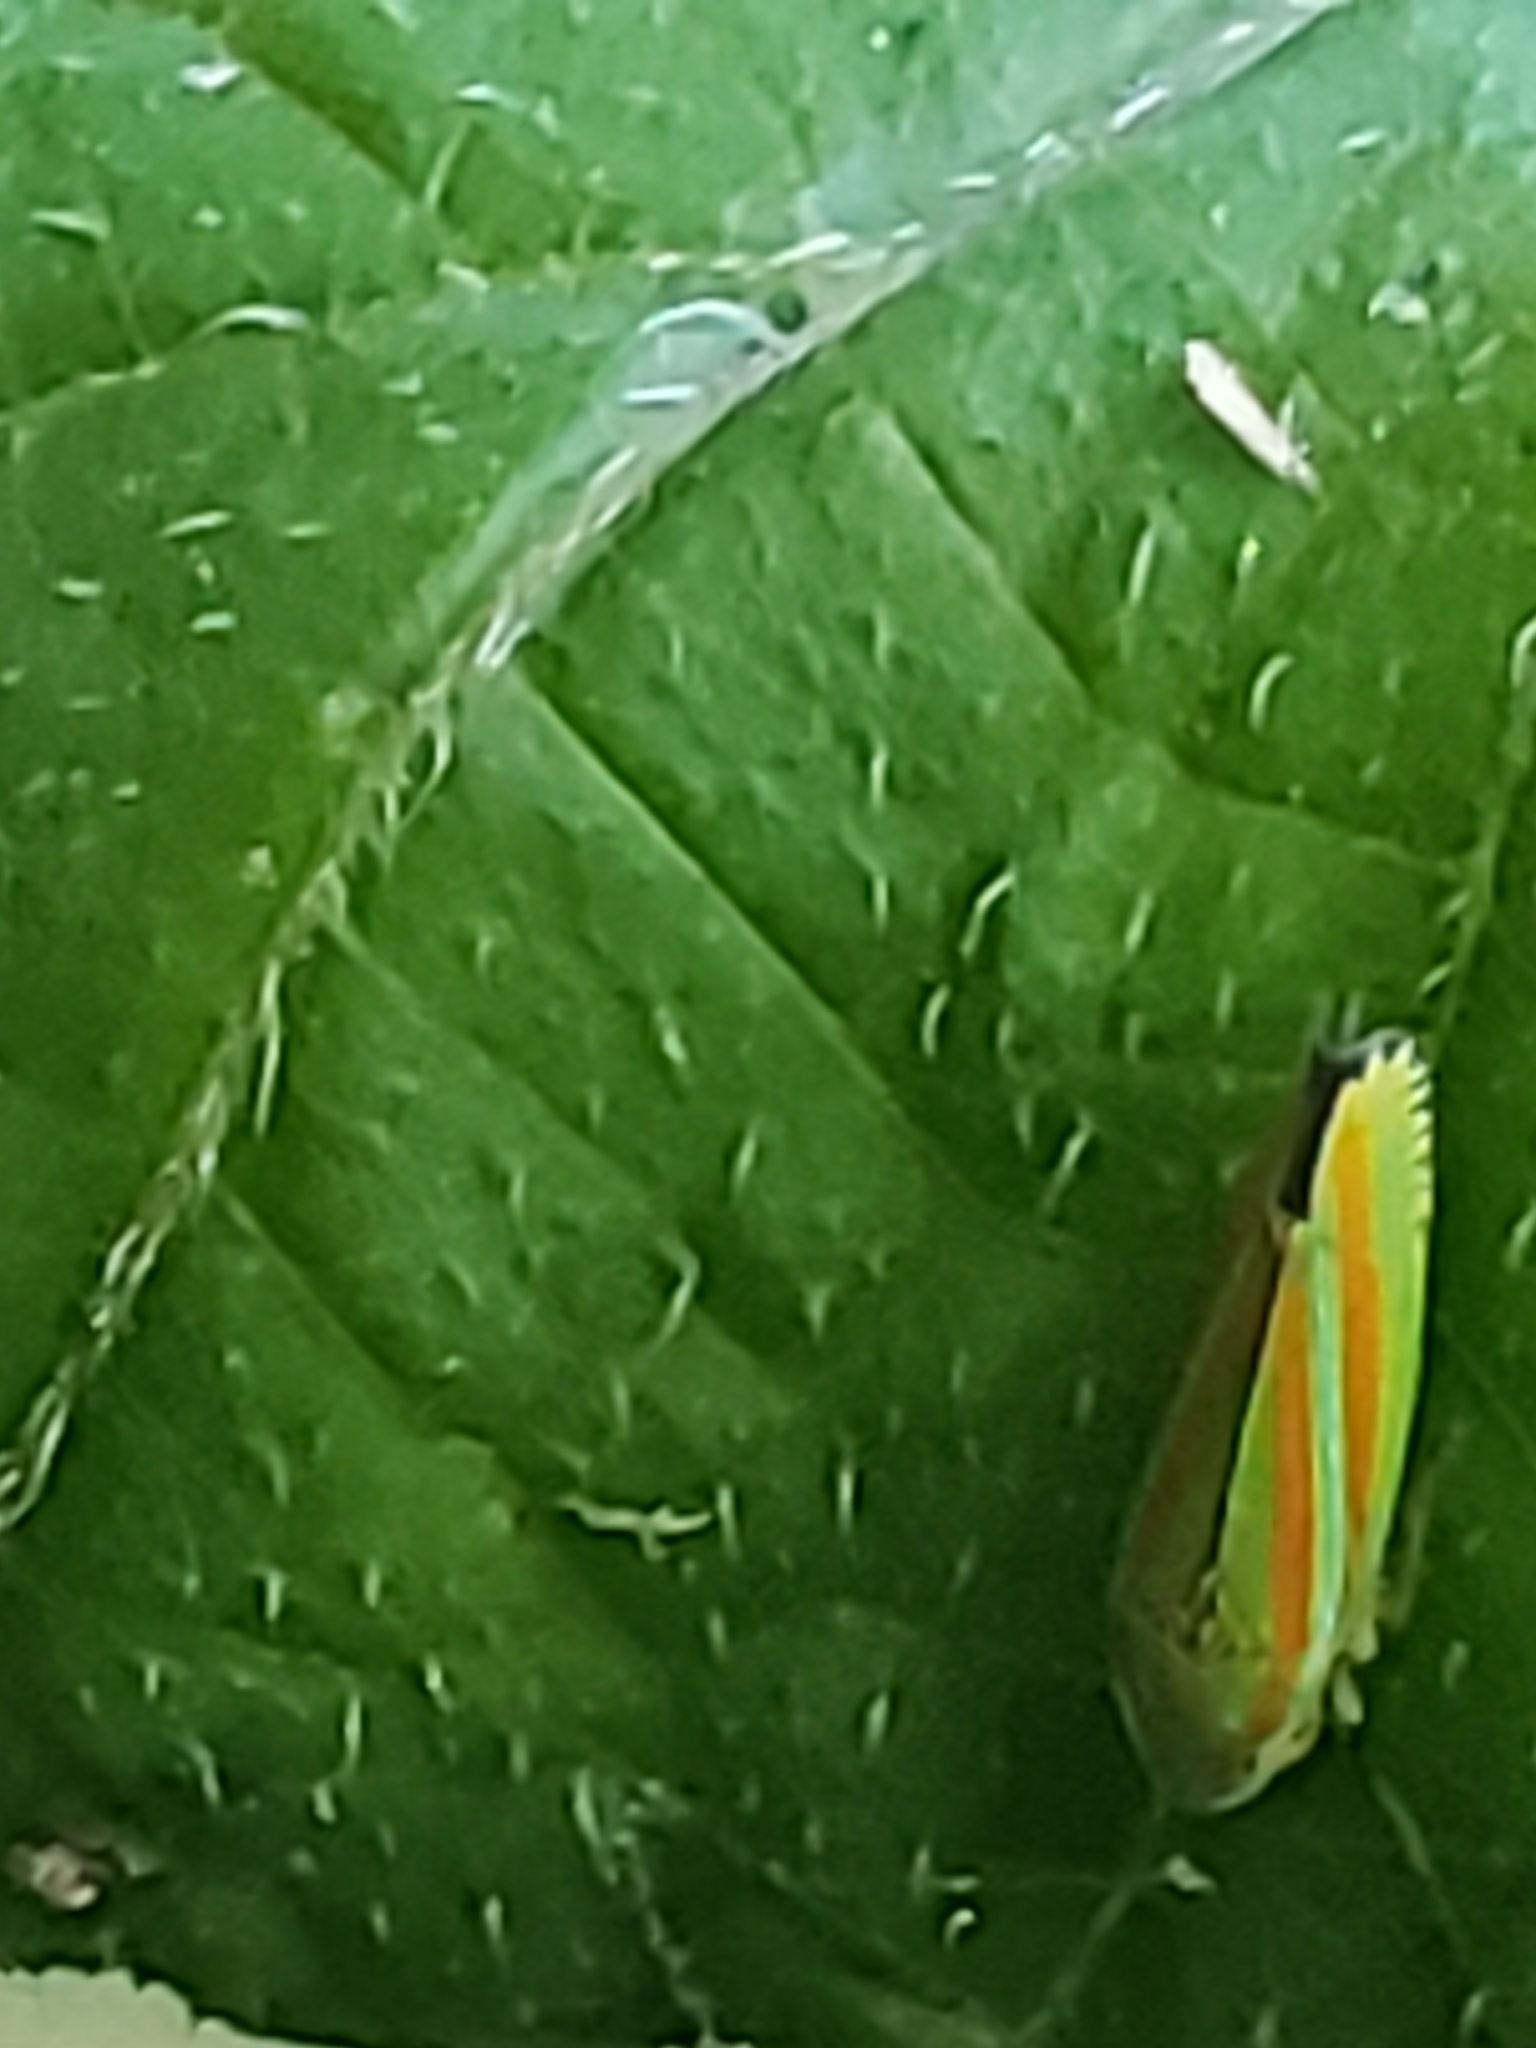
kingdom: Animalia
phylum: Arthropoda
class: Insecta
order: Hemiptera
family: Cicadellidae
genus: Graphocephala
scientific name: Graphocephala versuta
